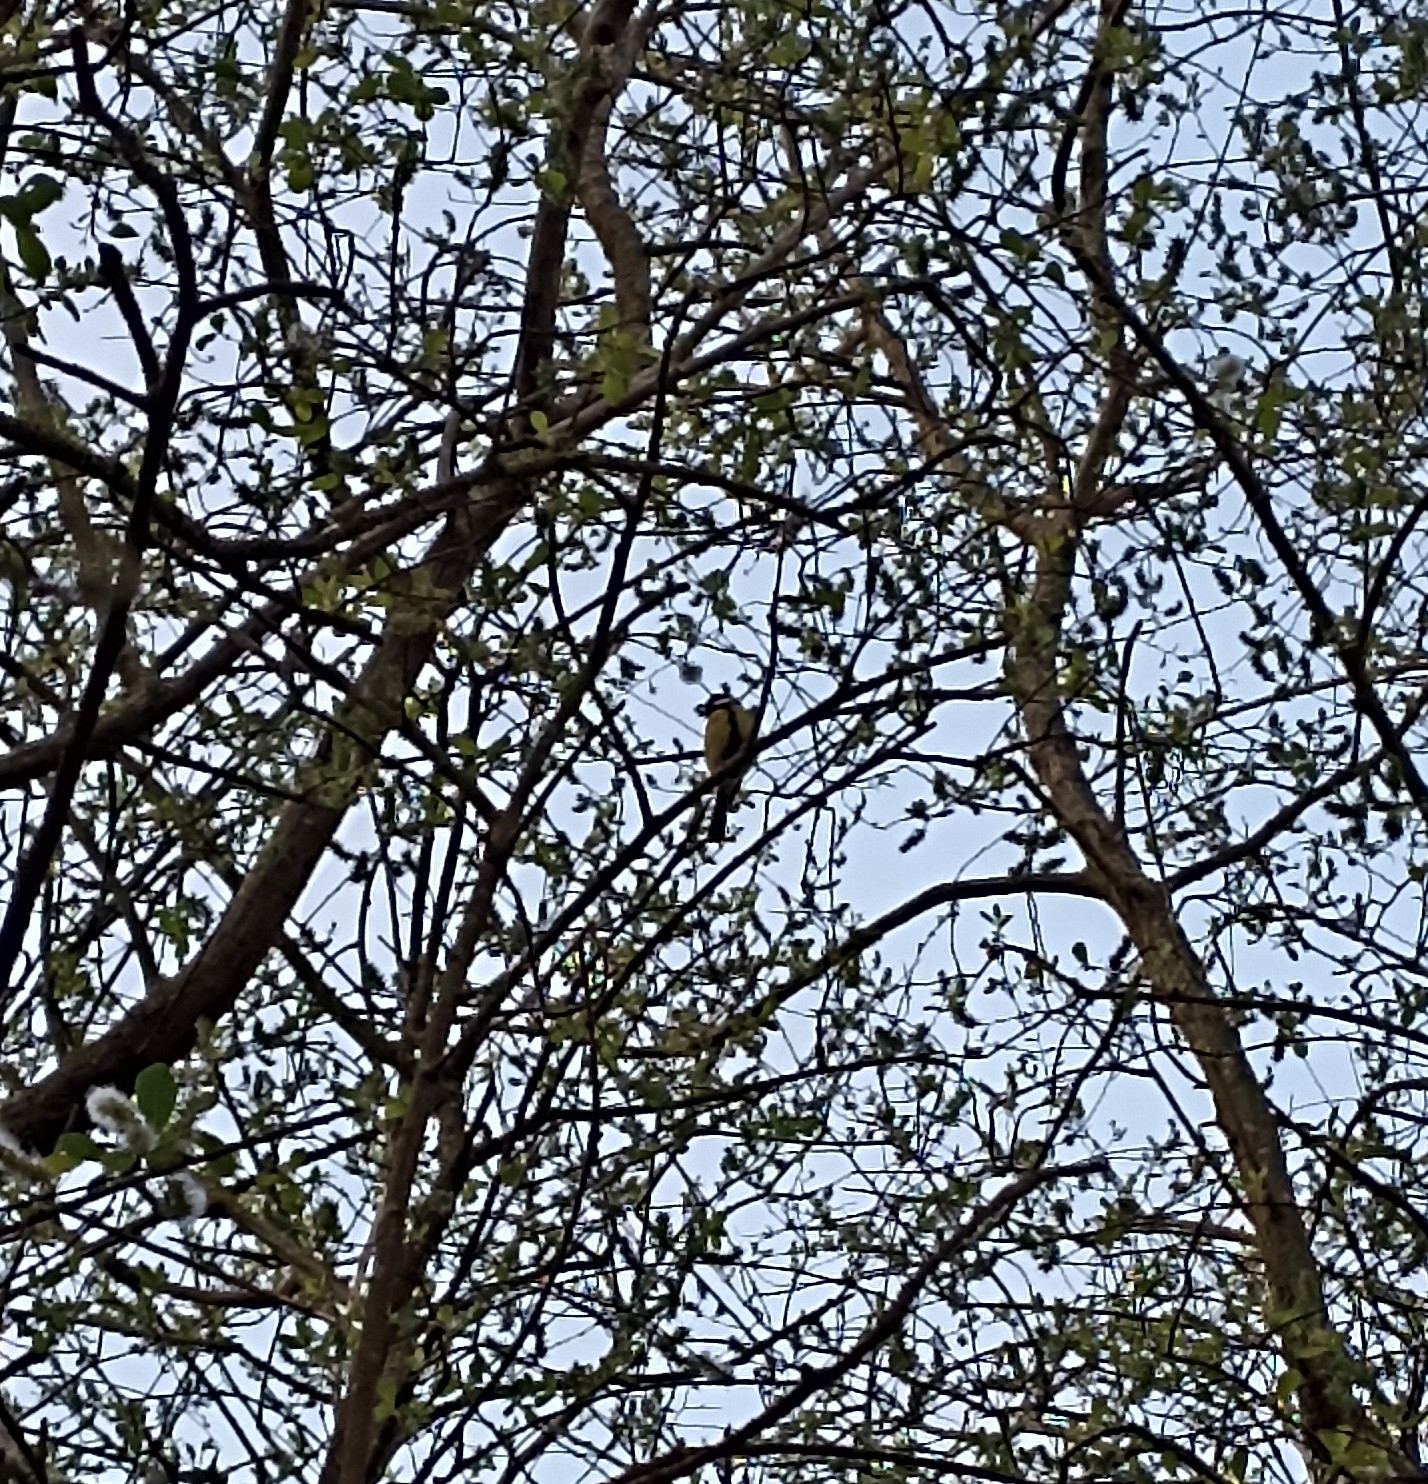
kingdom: Animalia
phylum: Chordata
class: Aves
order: Passeriformes
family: Paridae
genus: Parus
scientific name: Parus major
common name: Great tit
